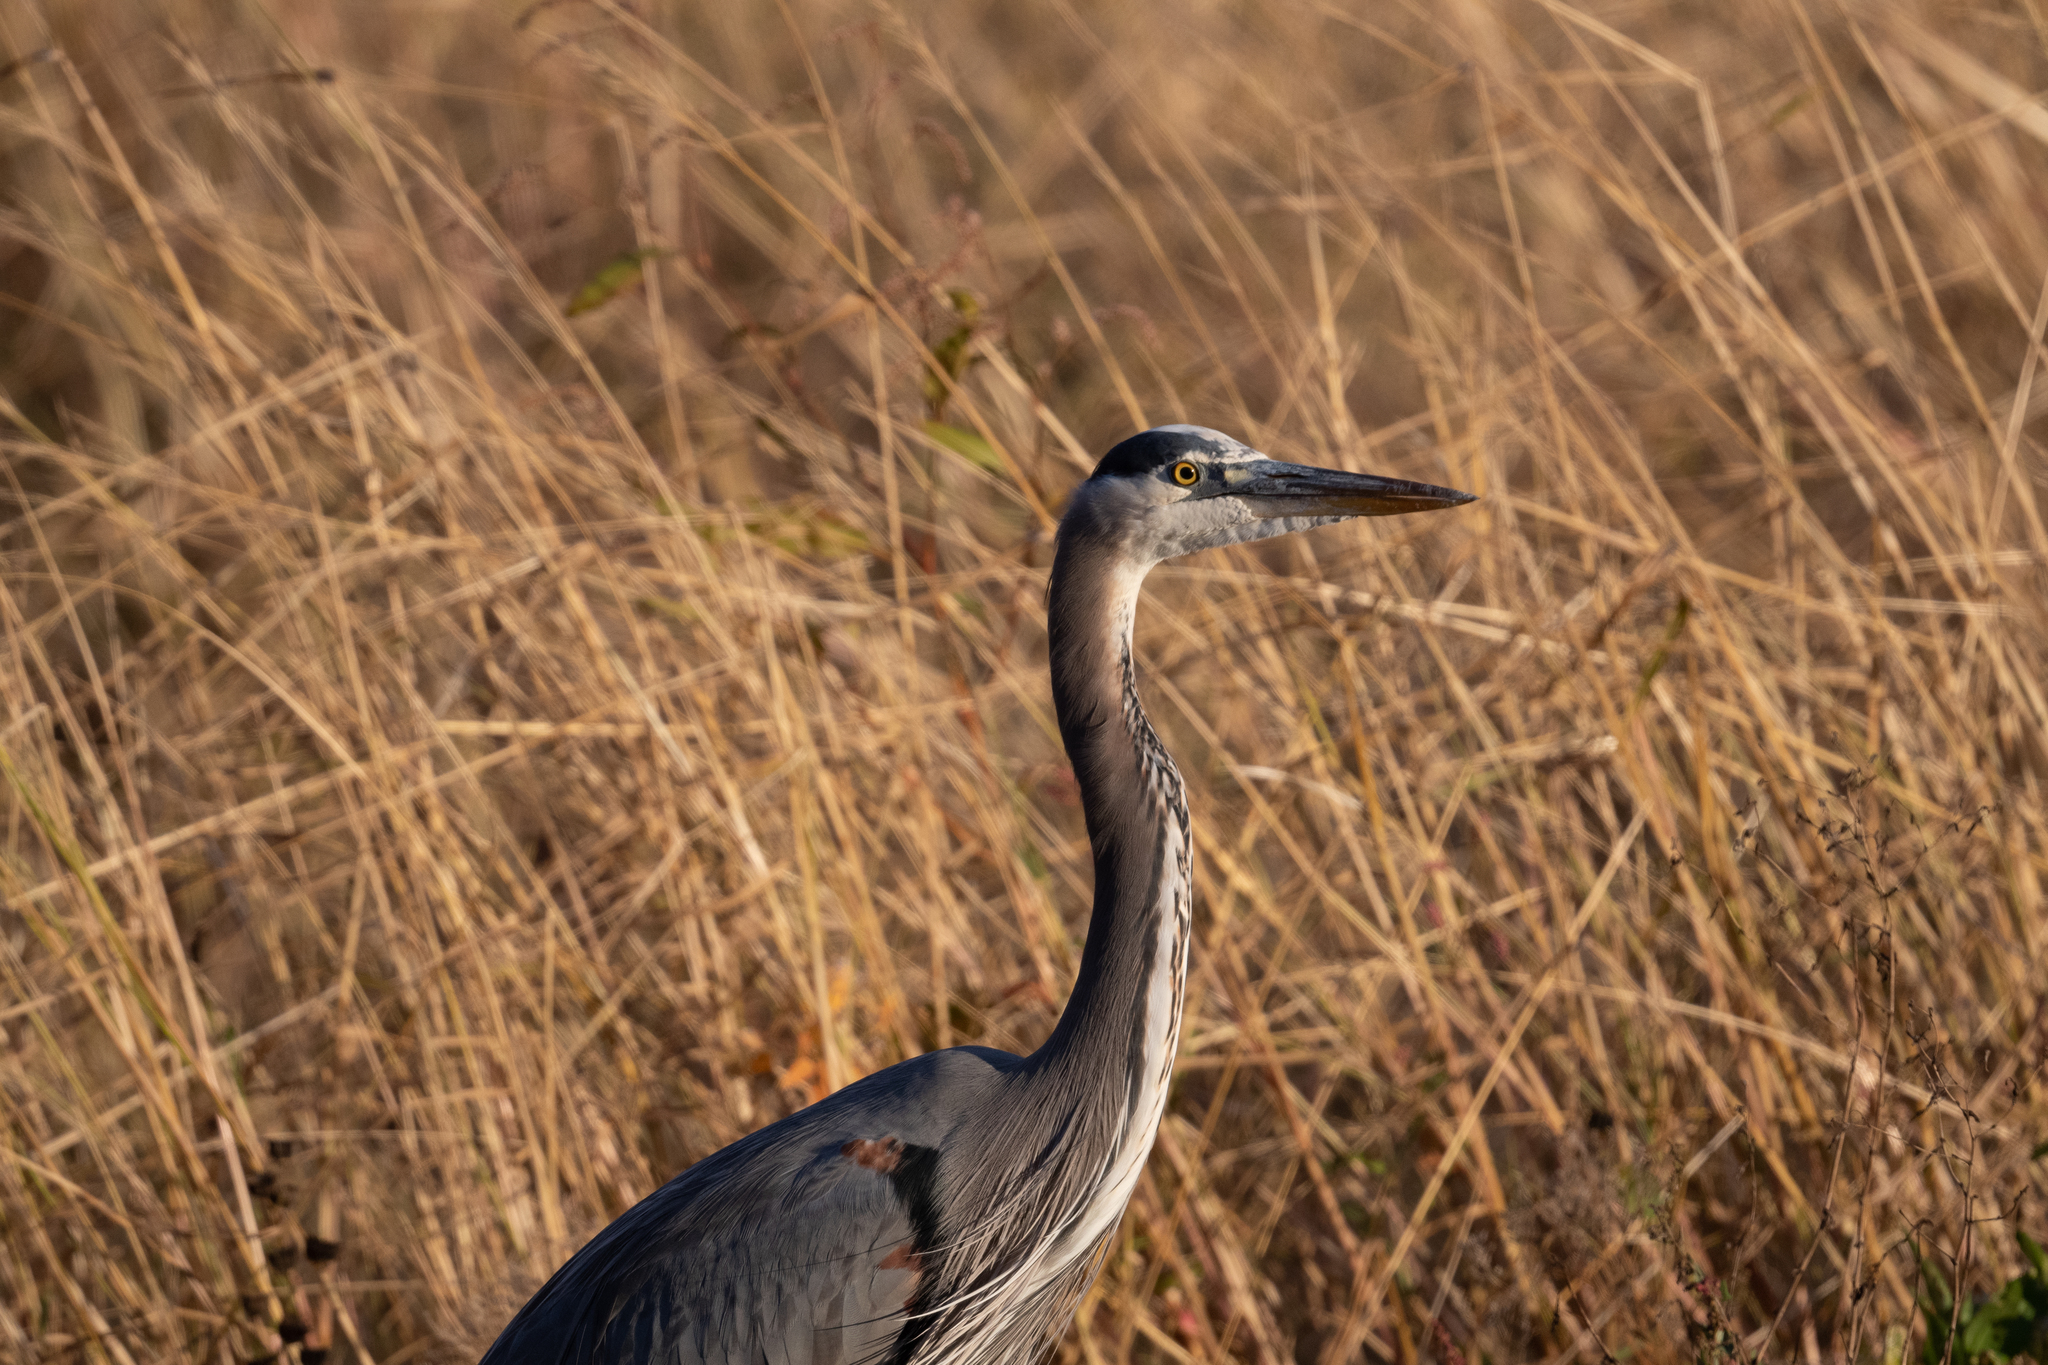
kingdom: Animalia
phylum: Chordata
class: Aves
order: Pelecaniformes
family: Ardeidae
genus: Ardea
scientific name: Ardea herodias
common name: Great blue heron
